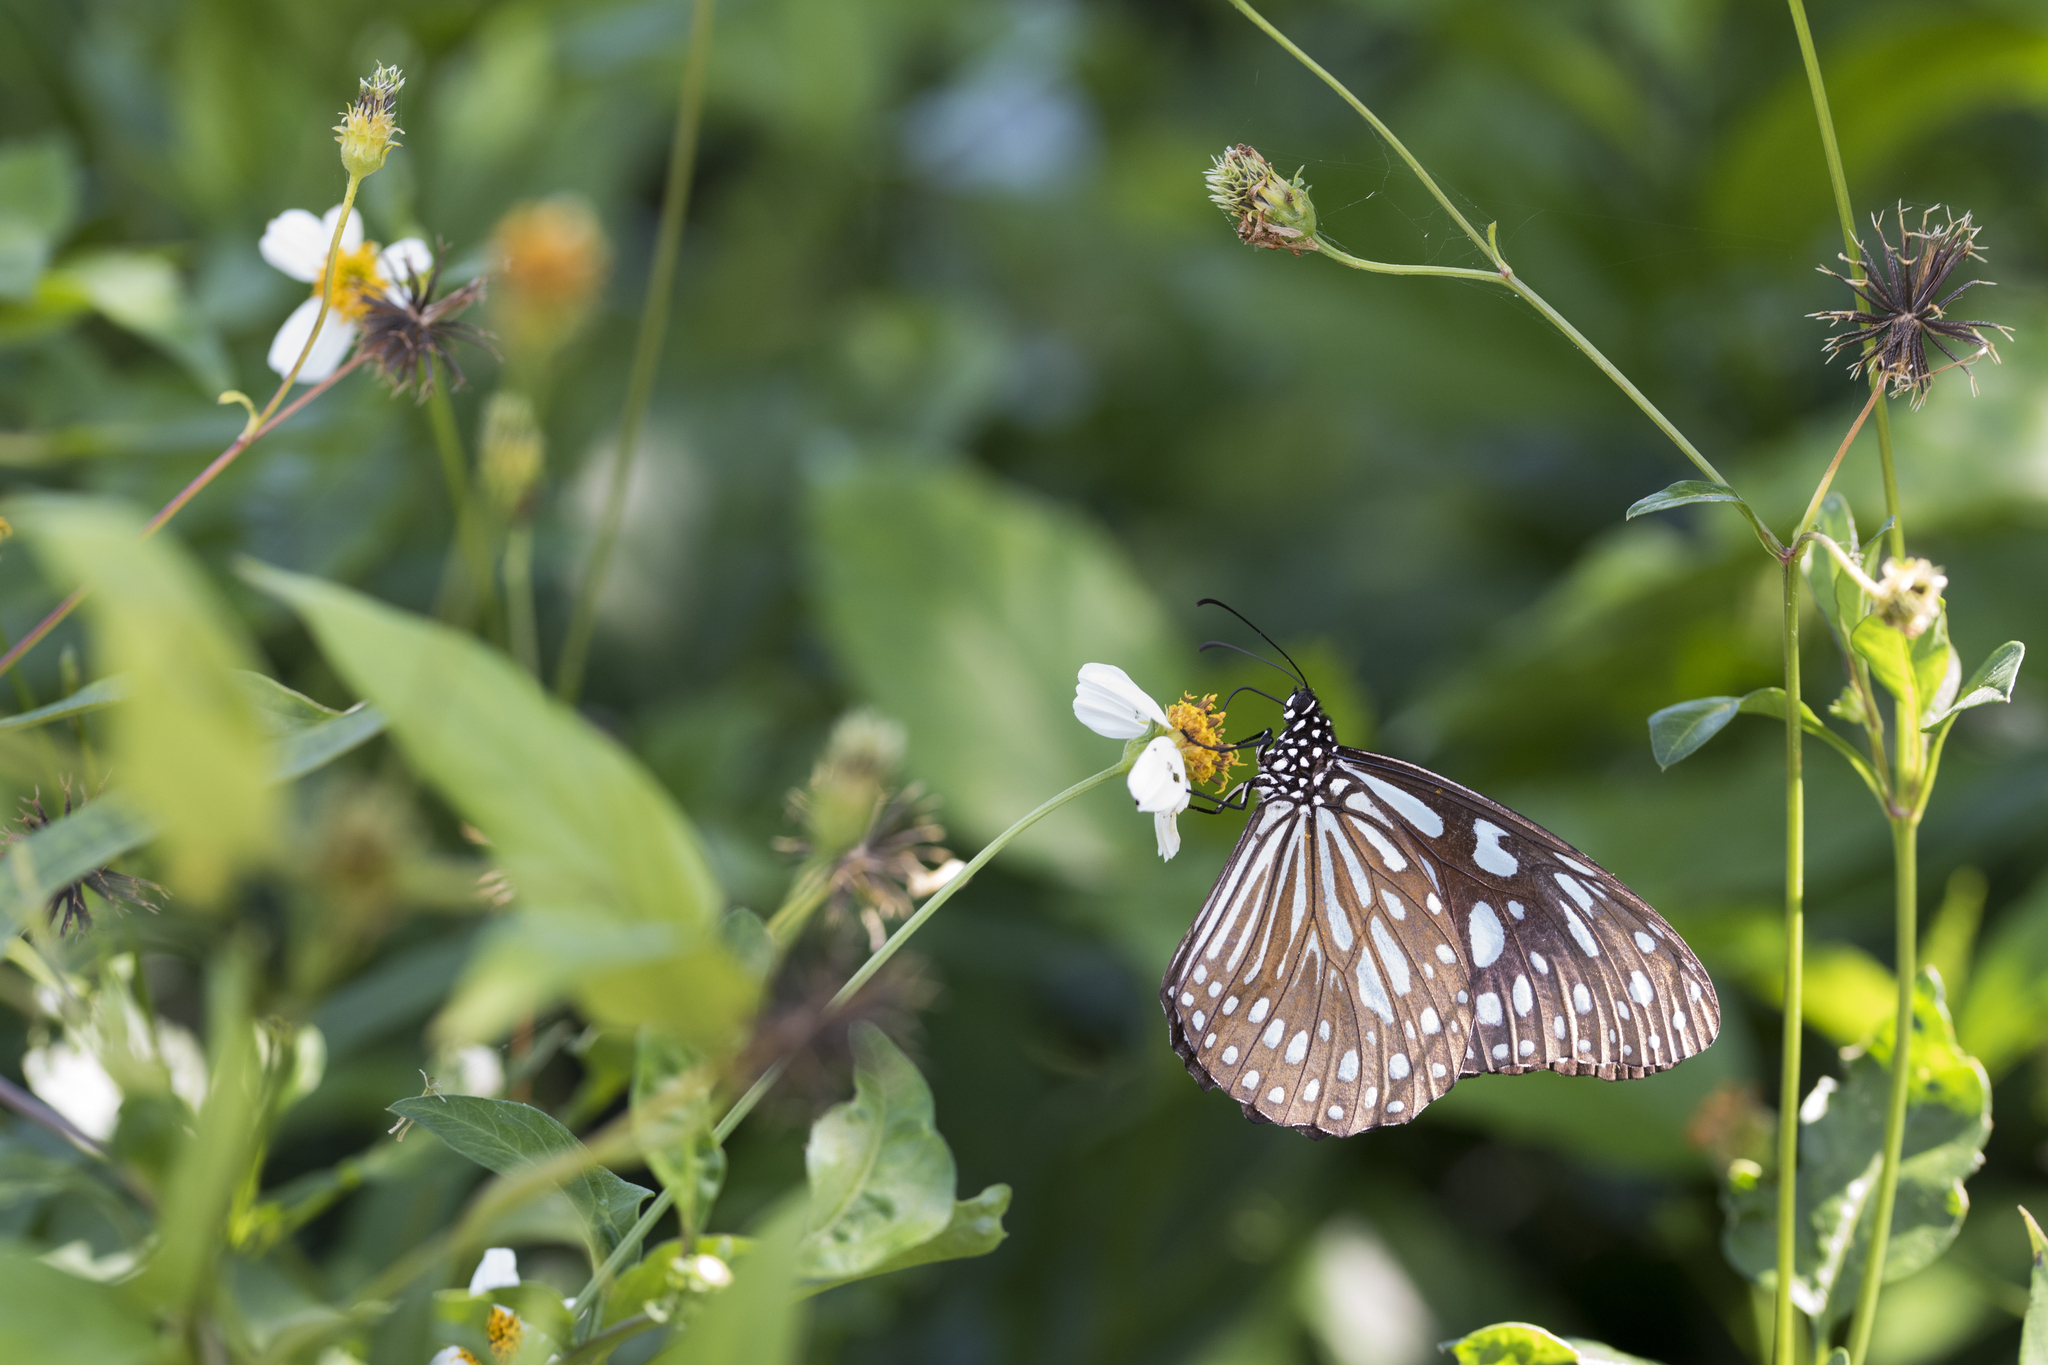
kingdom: Animalia
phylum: Arthropoda
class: Insecta
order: Lepidoptera
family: Nymphalidae
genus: Tirumala
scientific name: Tirumala limniace
